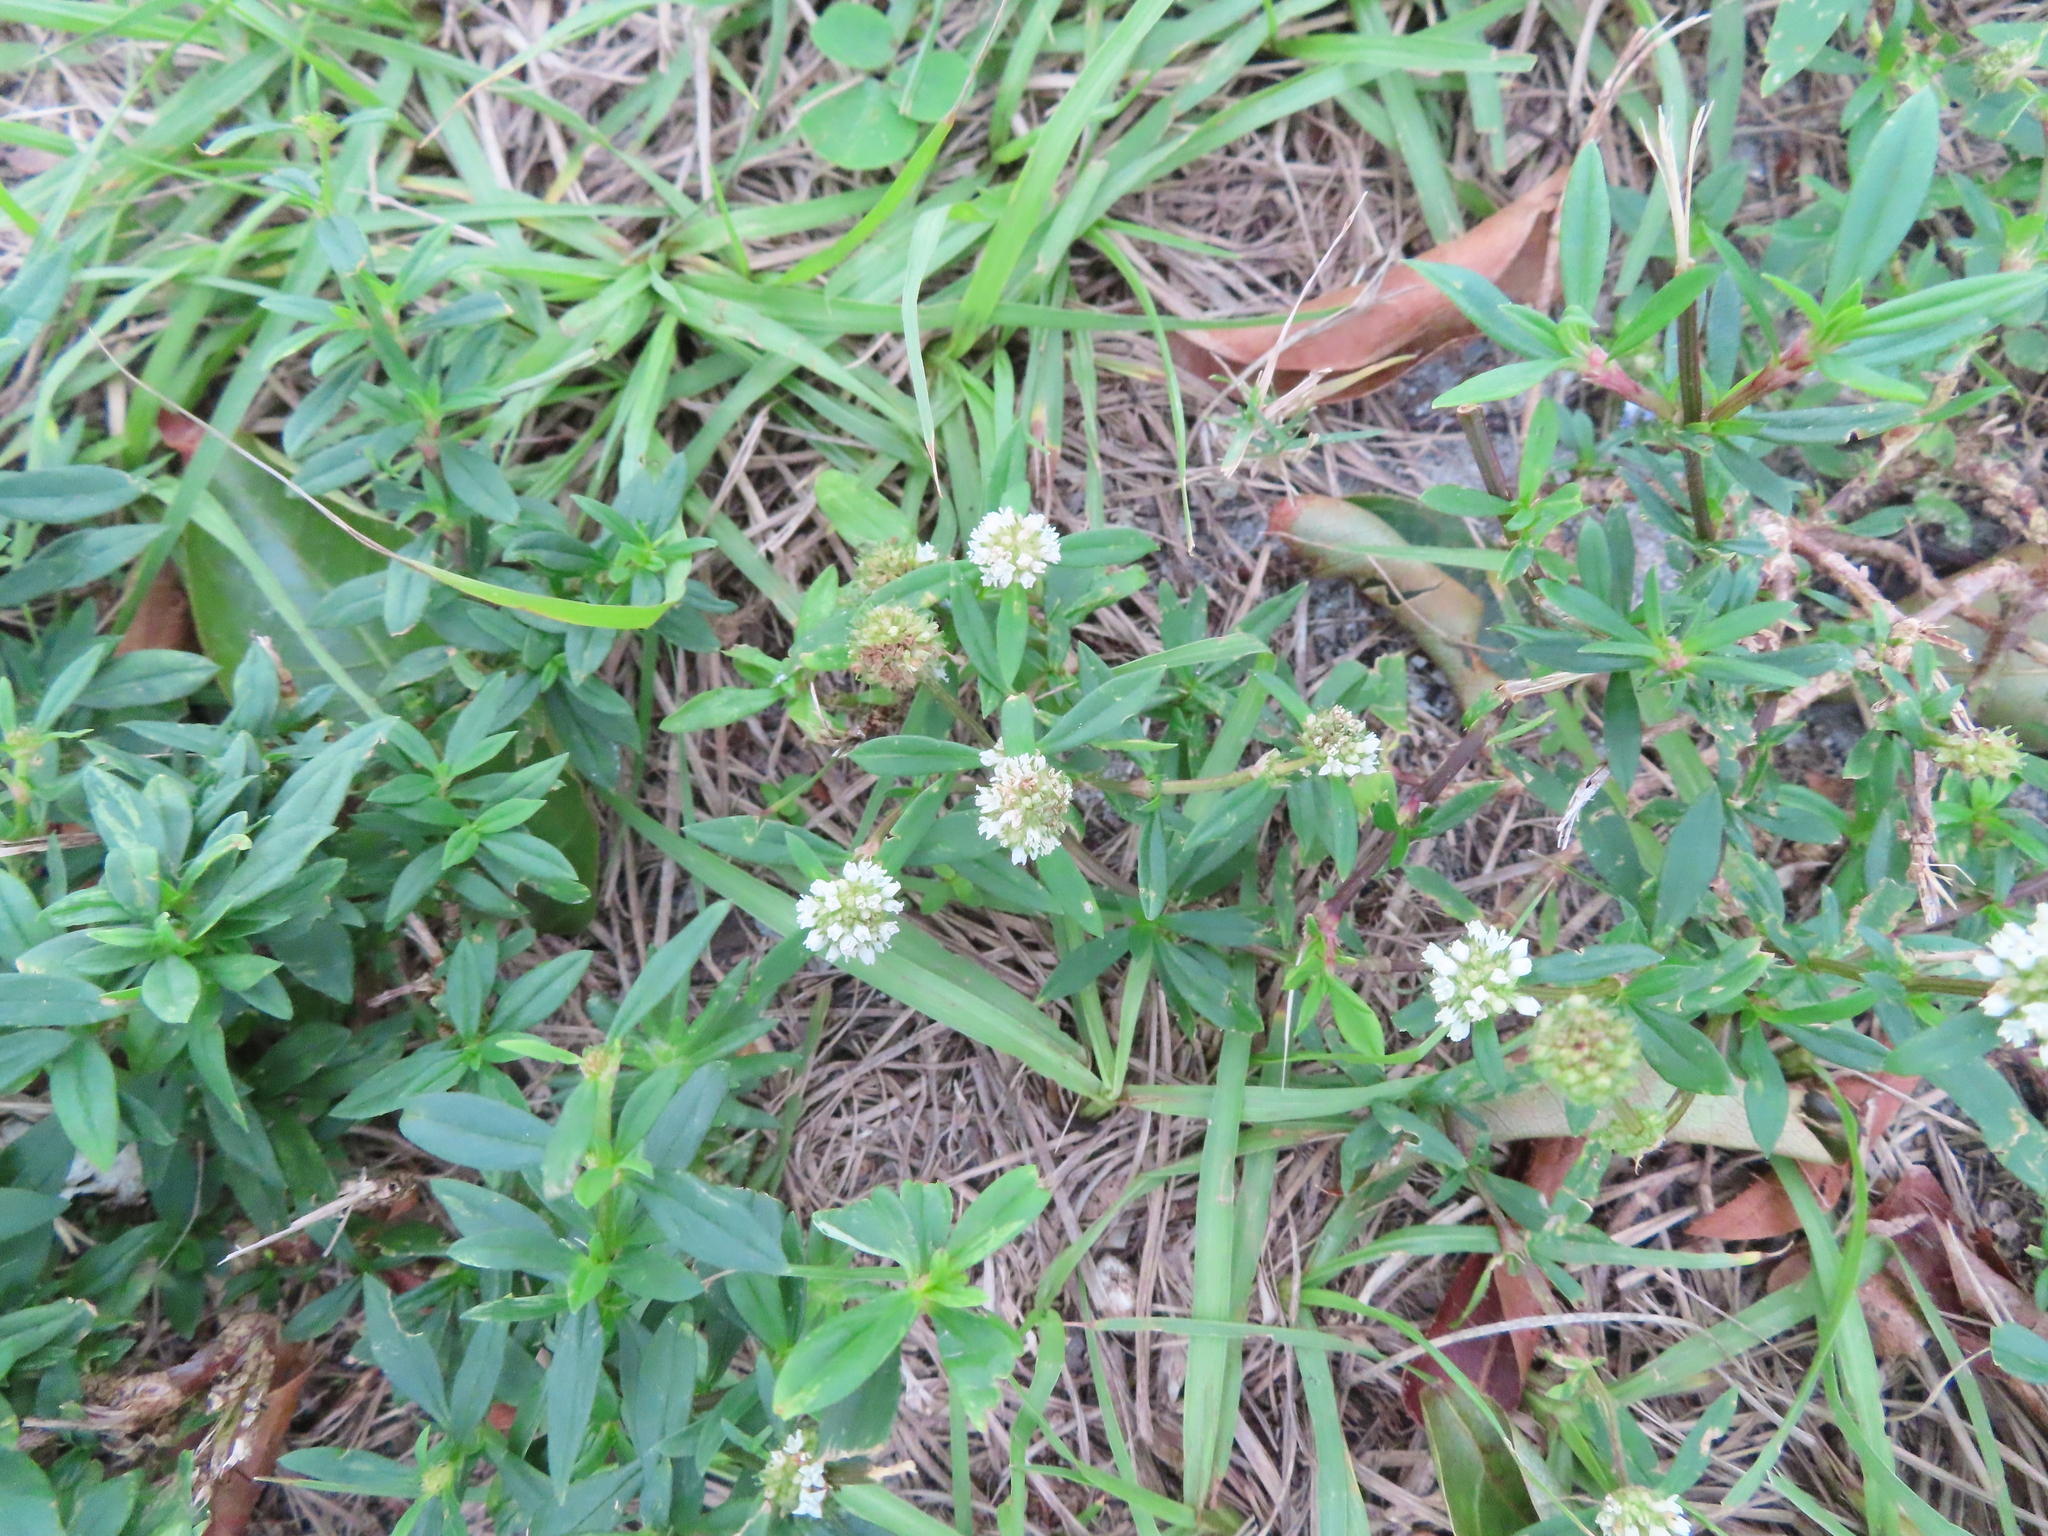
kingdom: Plantae
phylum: Tracheophyta
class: Magnoliopsida
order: Gentianales
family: Rubiaceae
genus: Spermacoce
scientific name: Spermacoce verticillata
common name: Shrubby false buttonweed
